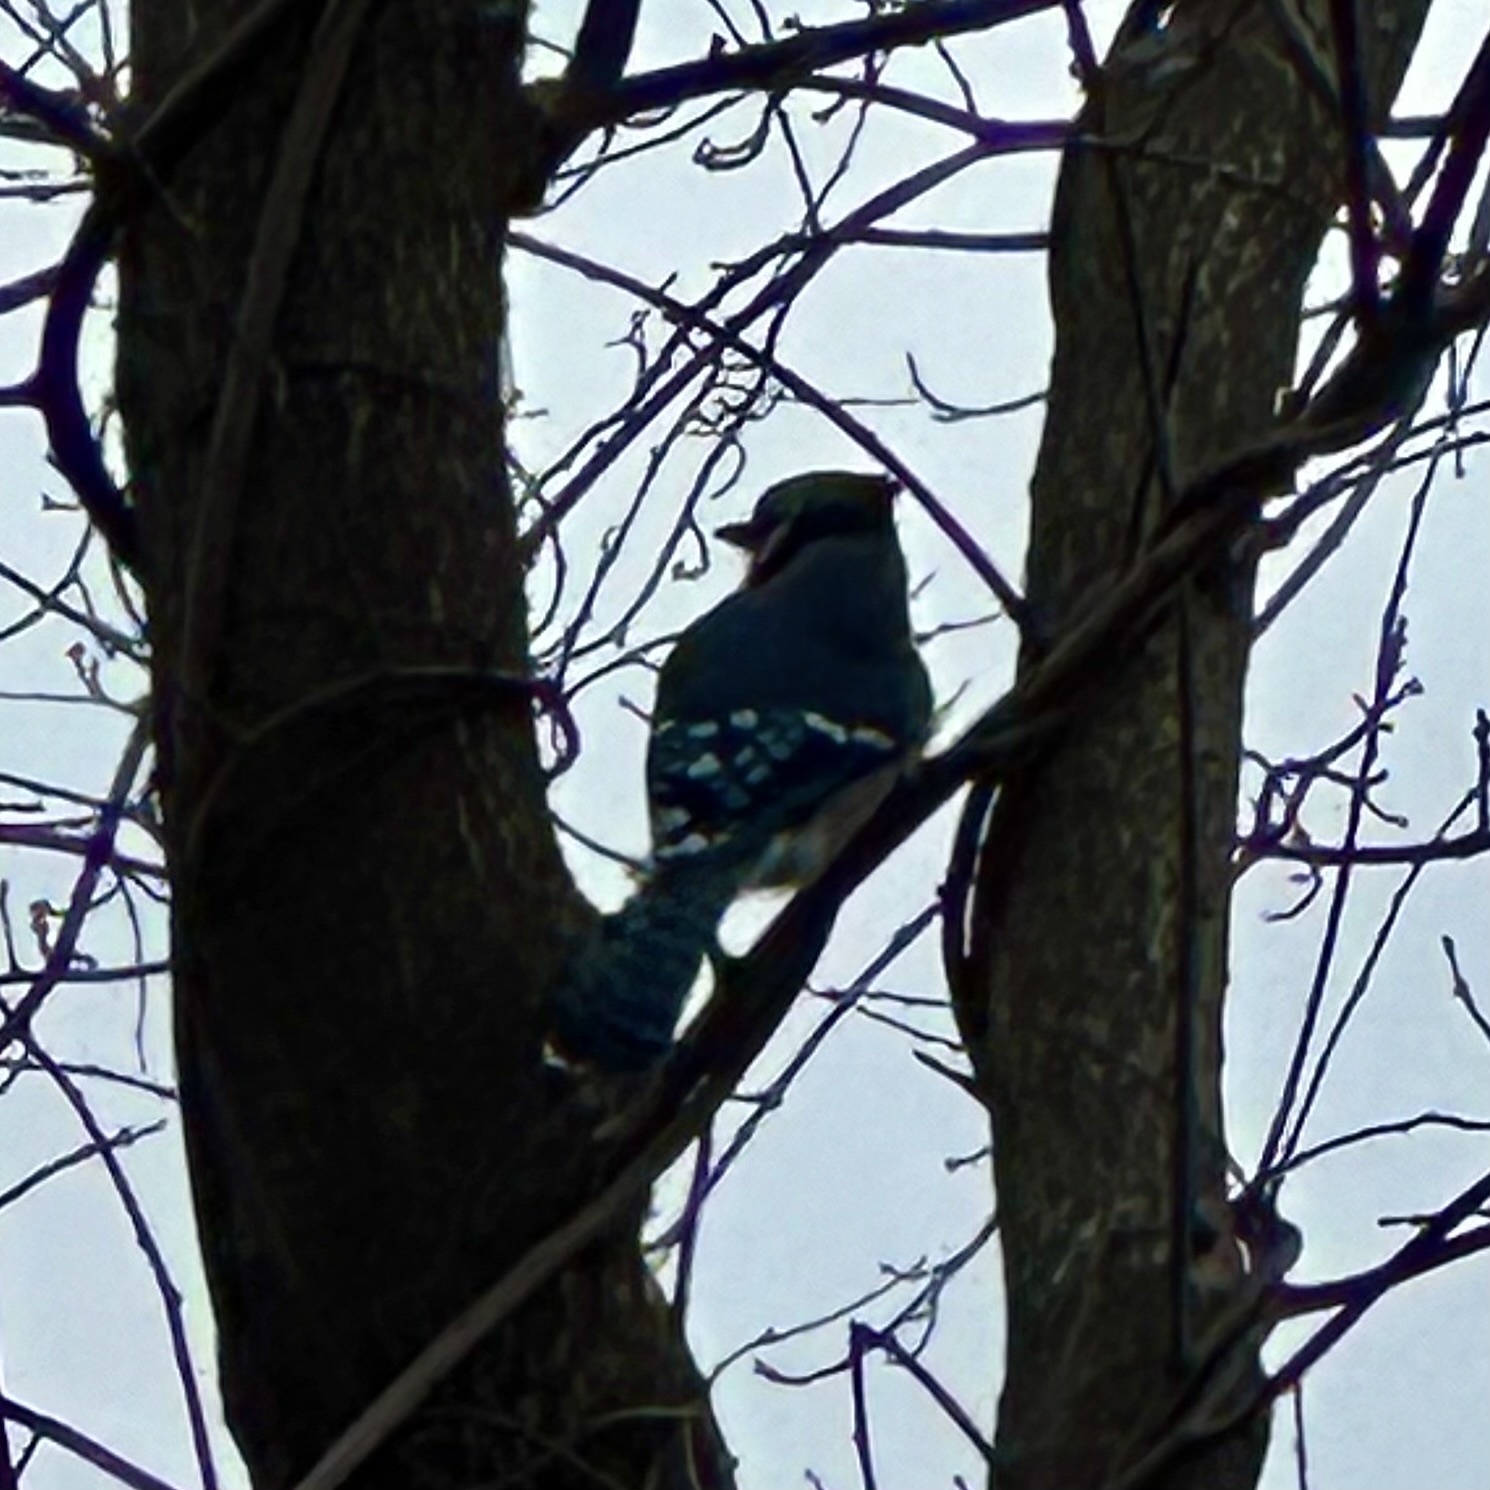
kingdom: Animalia
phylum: Chordata
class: Aves
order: Passeriformes
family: Corvidae
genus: Cyanocitta
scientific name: Cyanocitta cristata
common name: Blue jay
